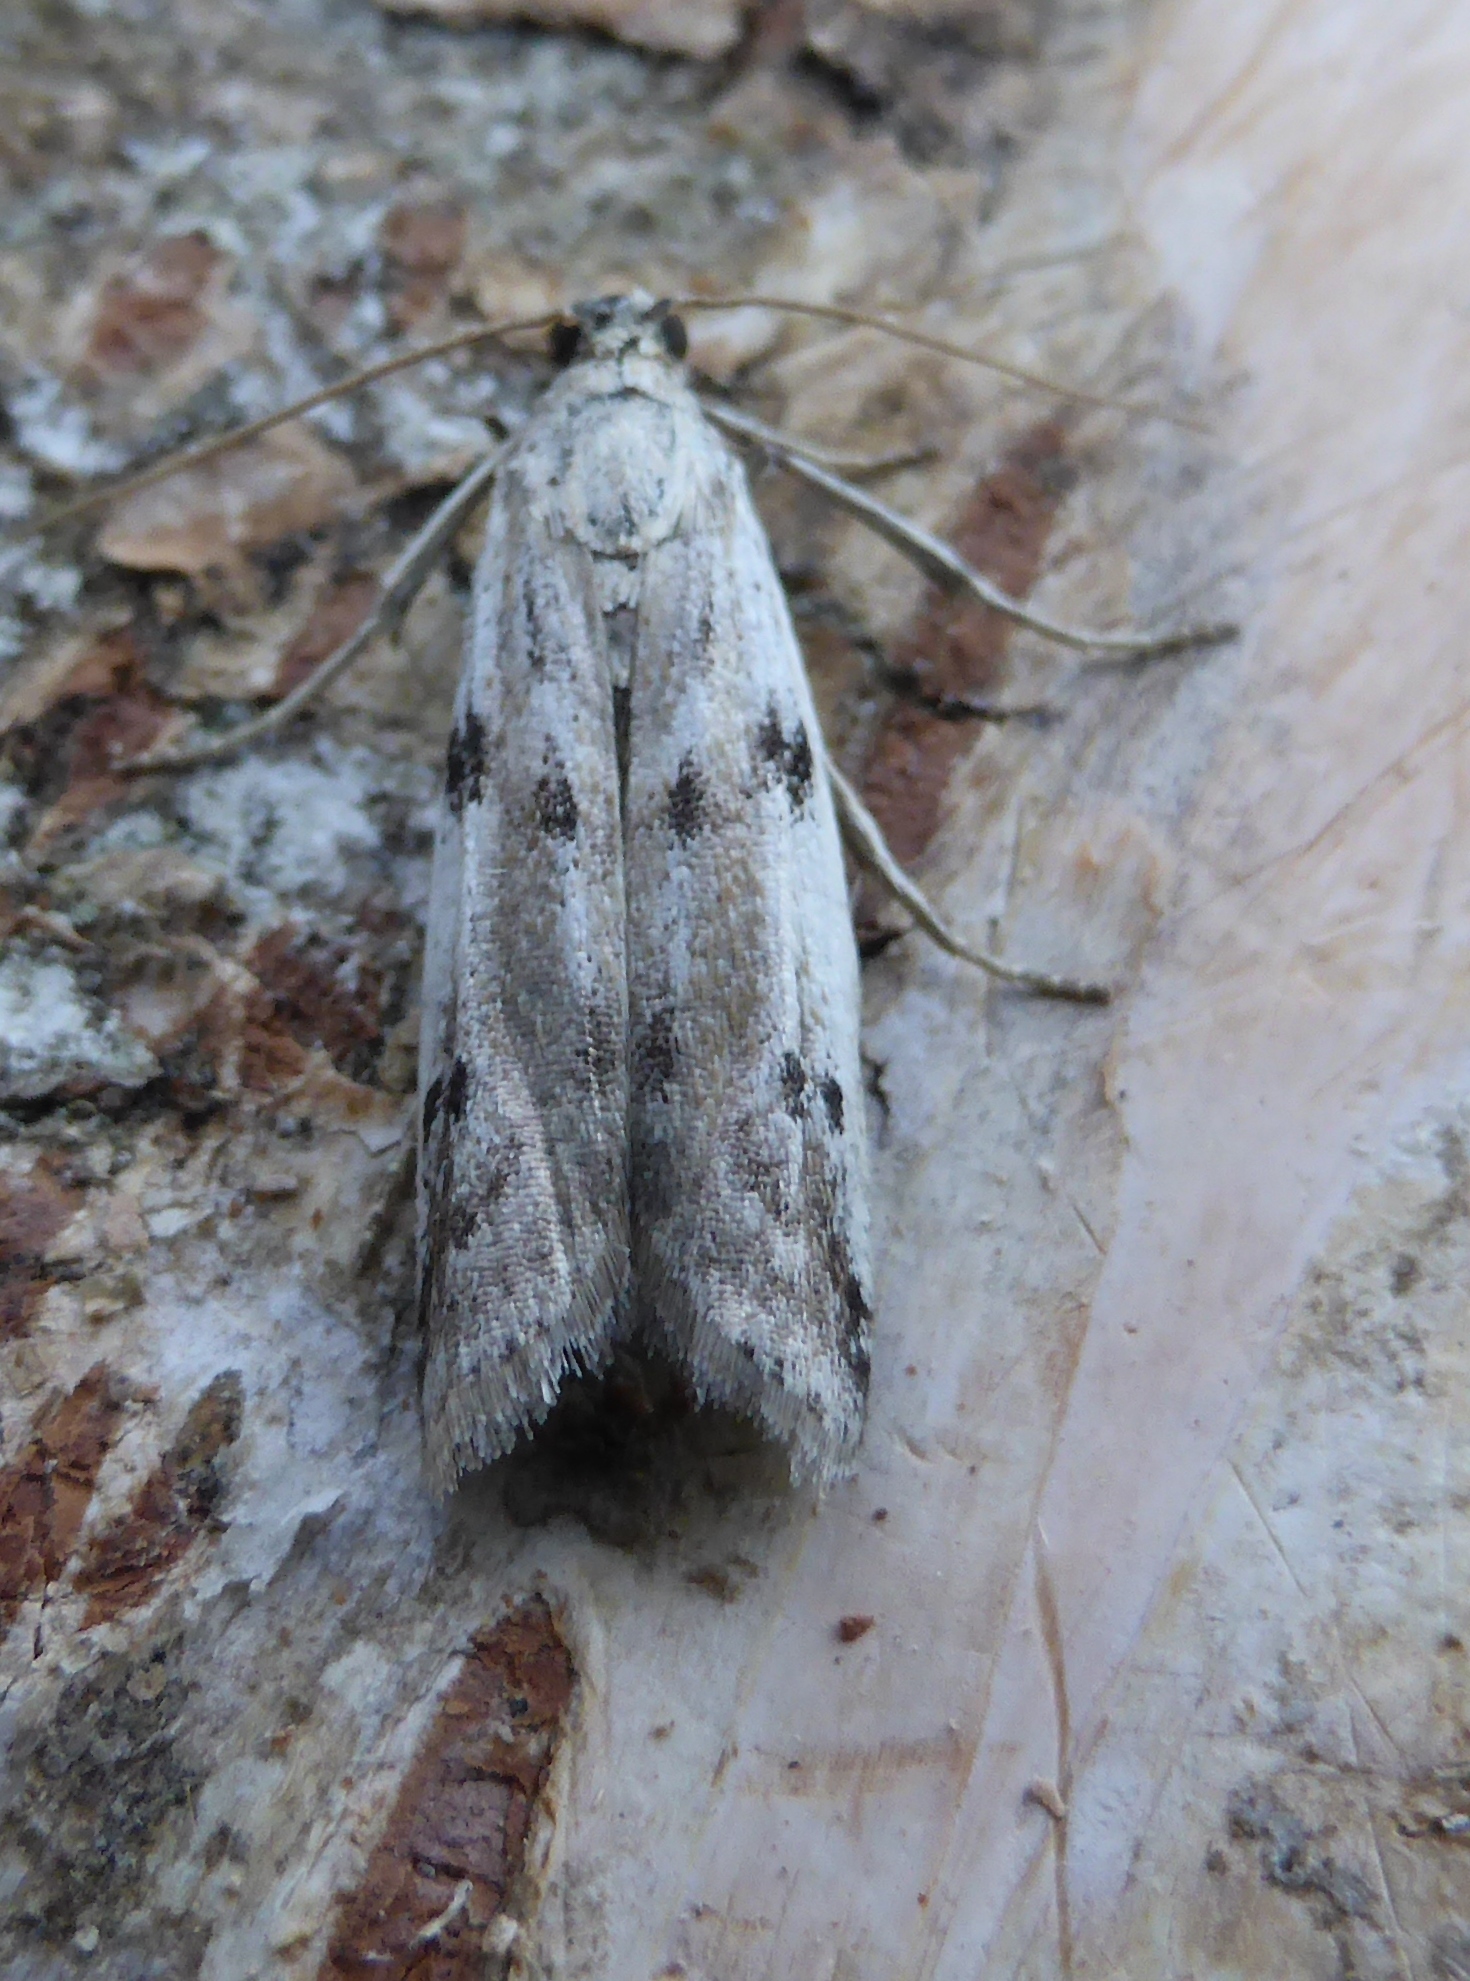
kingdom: Animalia
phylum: Arthropoda
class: Insecta
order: Lepidoptera
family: Pyralidae
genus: Phycitodes
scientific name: Phycitodes binaevella
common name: Ermine knot-horn
